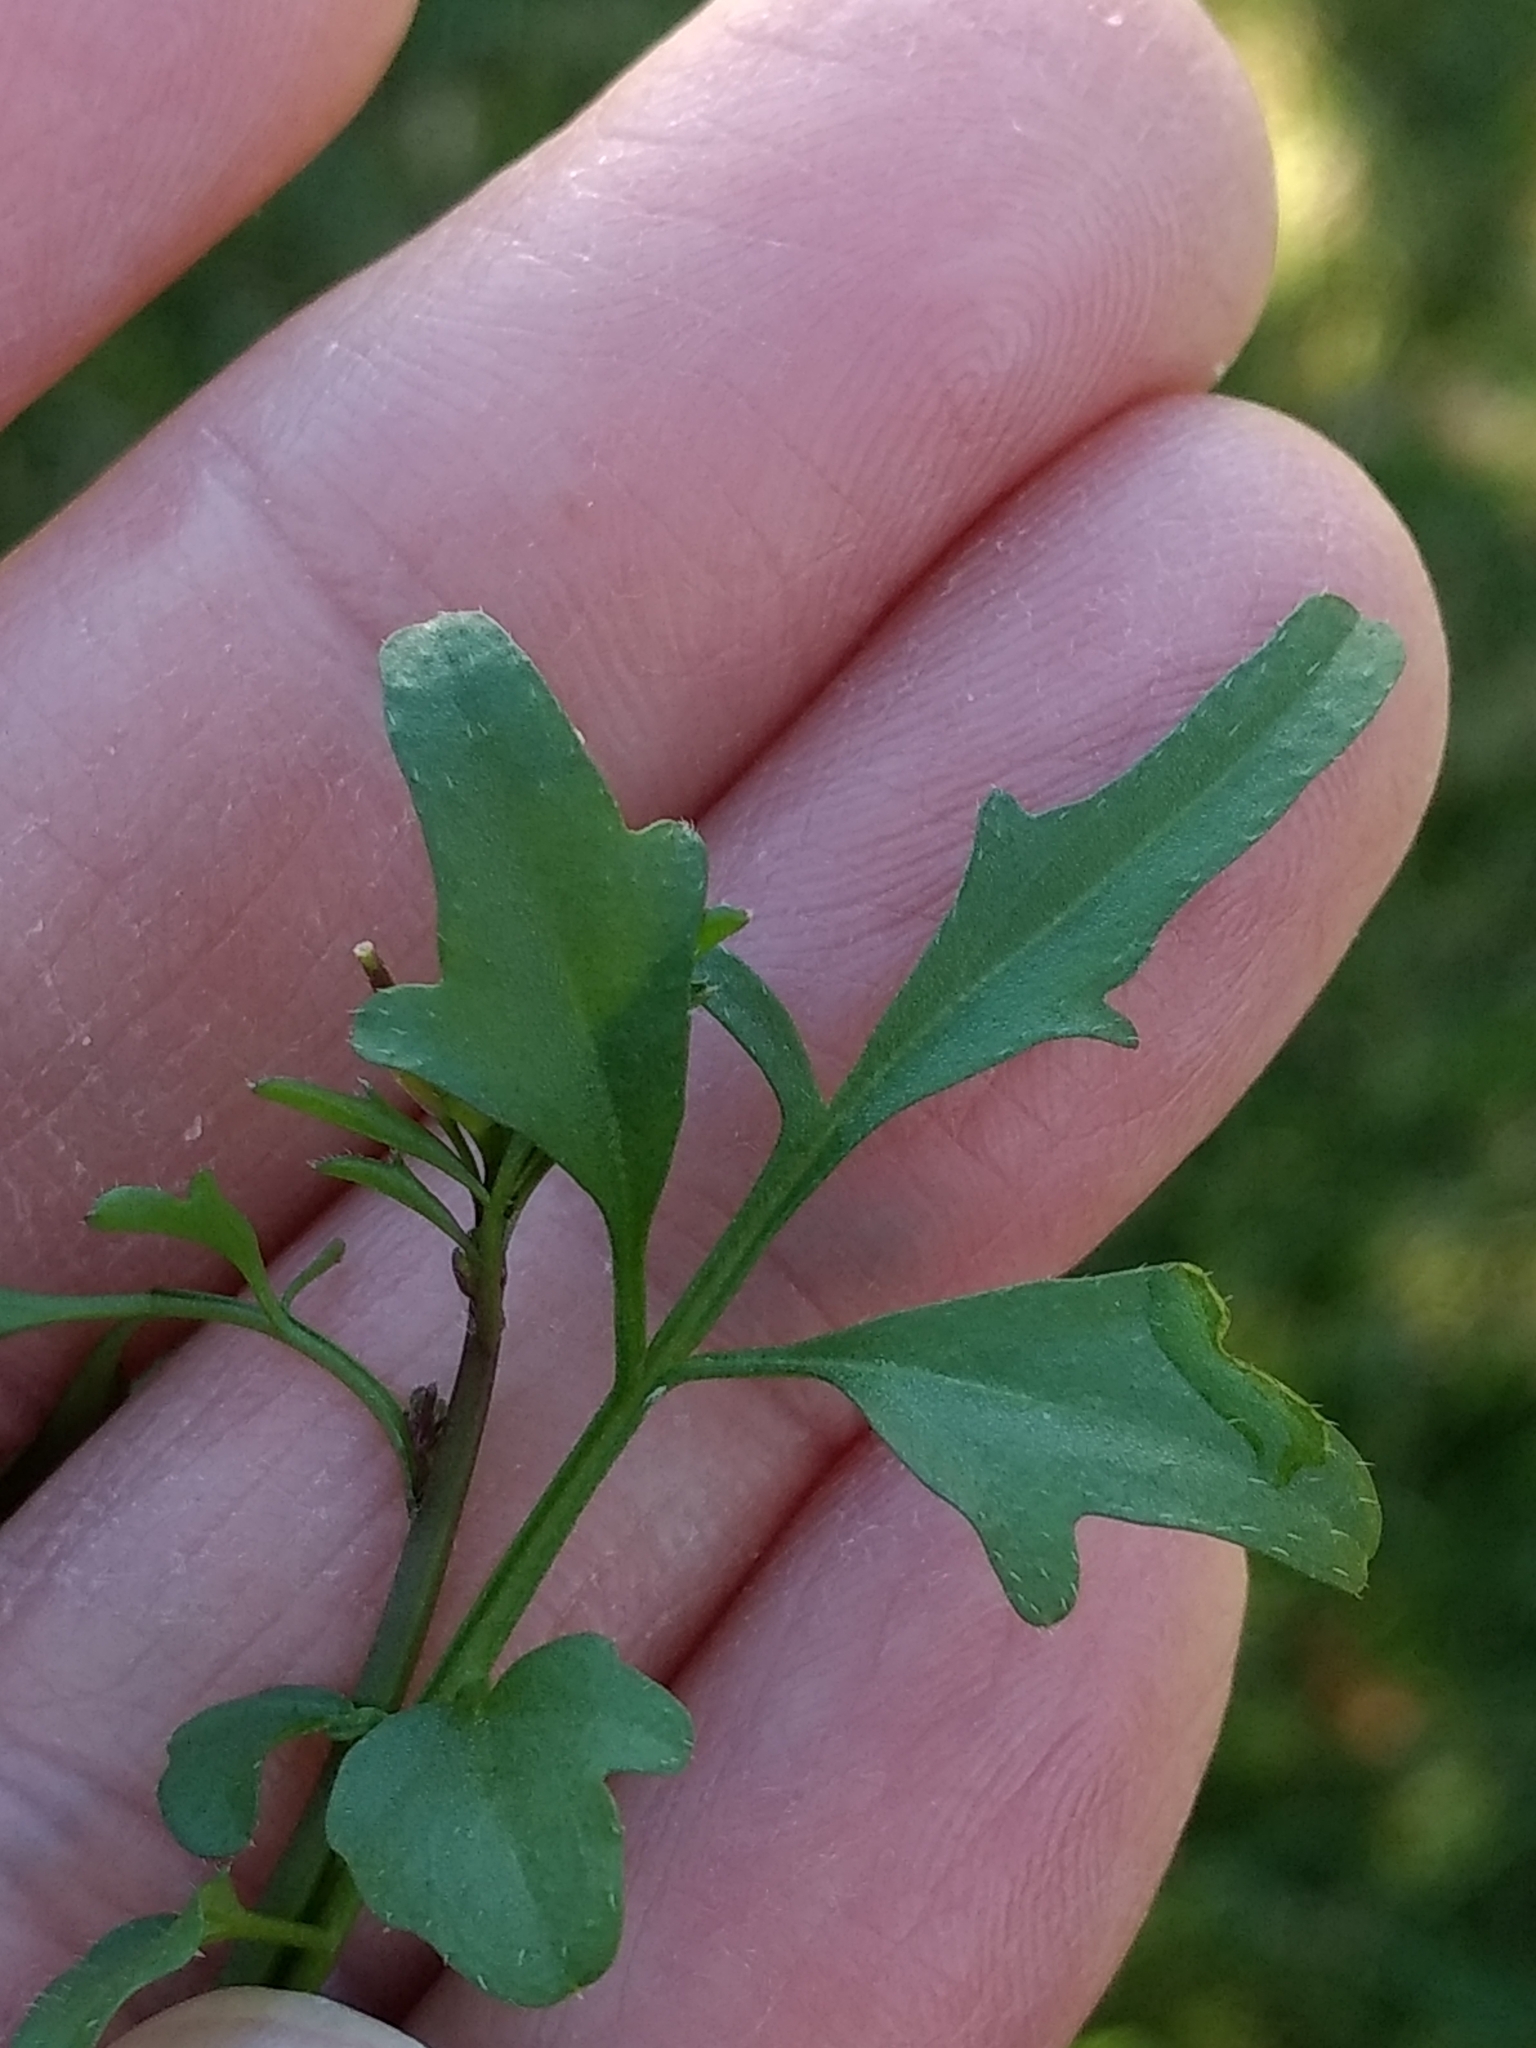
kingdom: Plantae
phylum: Tracheophyta
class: Magnoliopsida
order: Brassicales
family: Brassicaceae
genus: Cardamine
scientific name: Cardamine hirsuta
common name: Hairy bittercress
